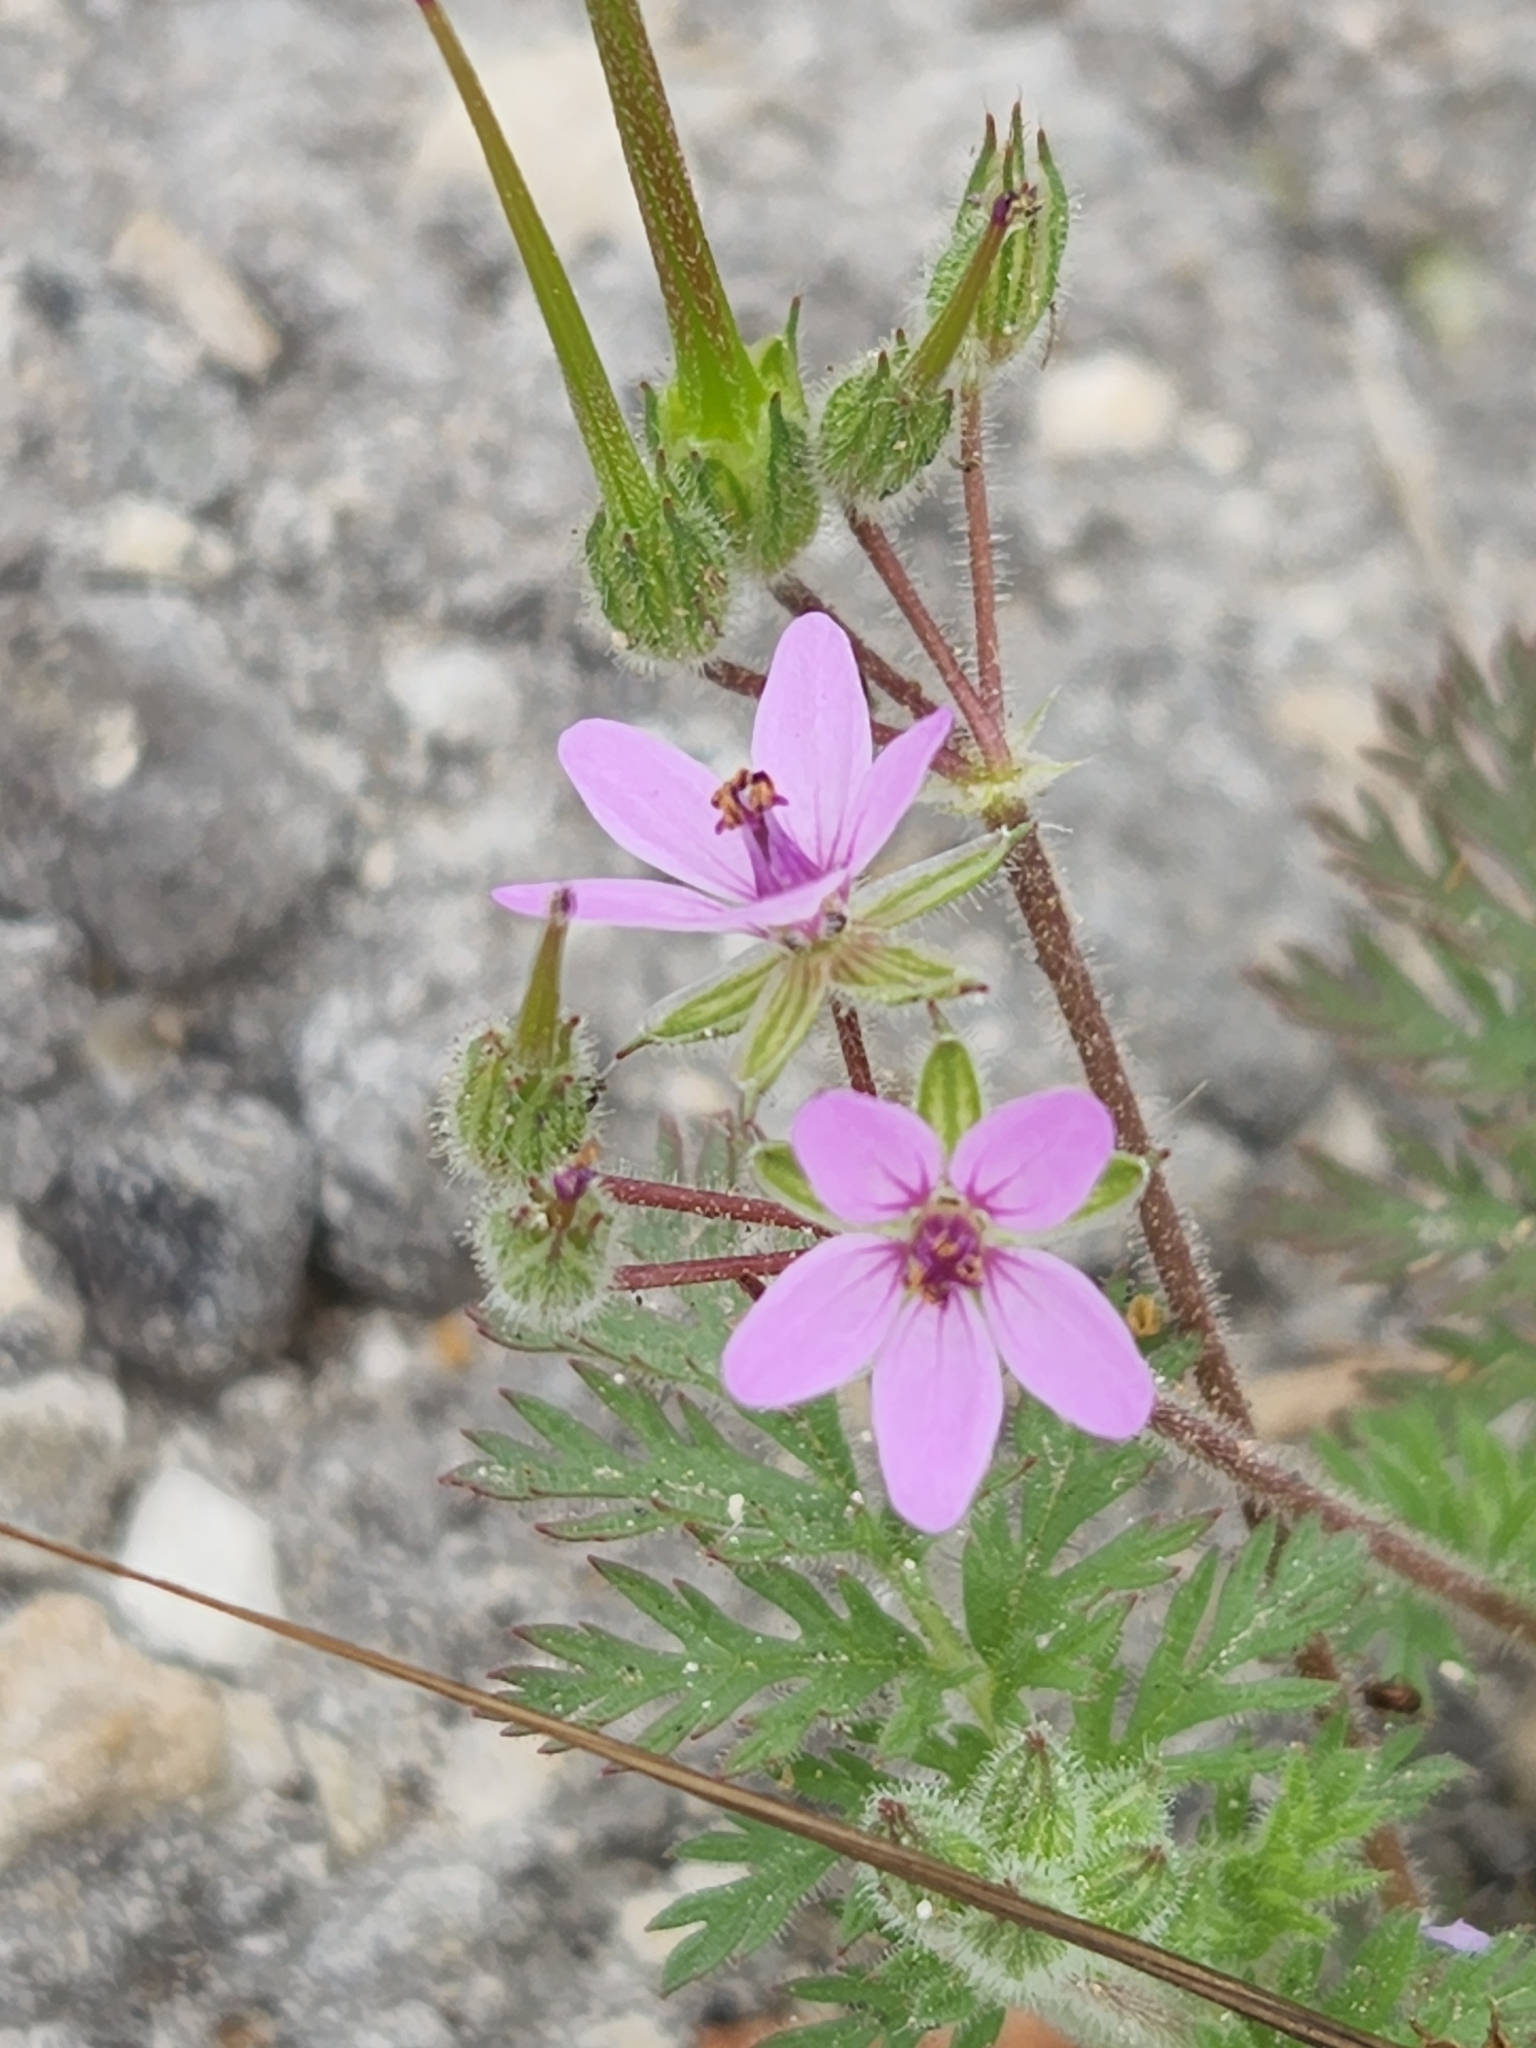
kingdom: Plantae
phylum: Tracheophyta
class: Magnoliopsida
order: Geraniales
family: Geraniaceae
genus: Erodium
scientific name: Erodium cicutarium
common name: Common stork's-bill
